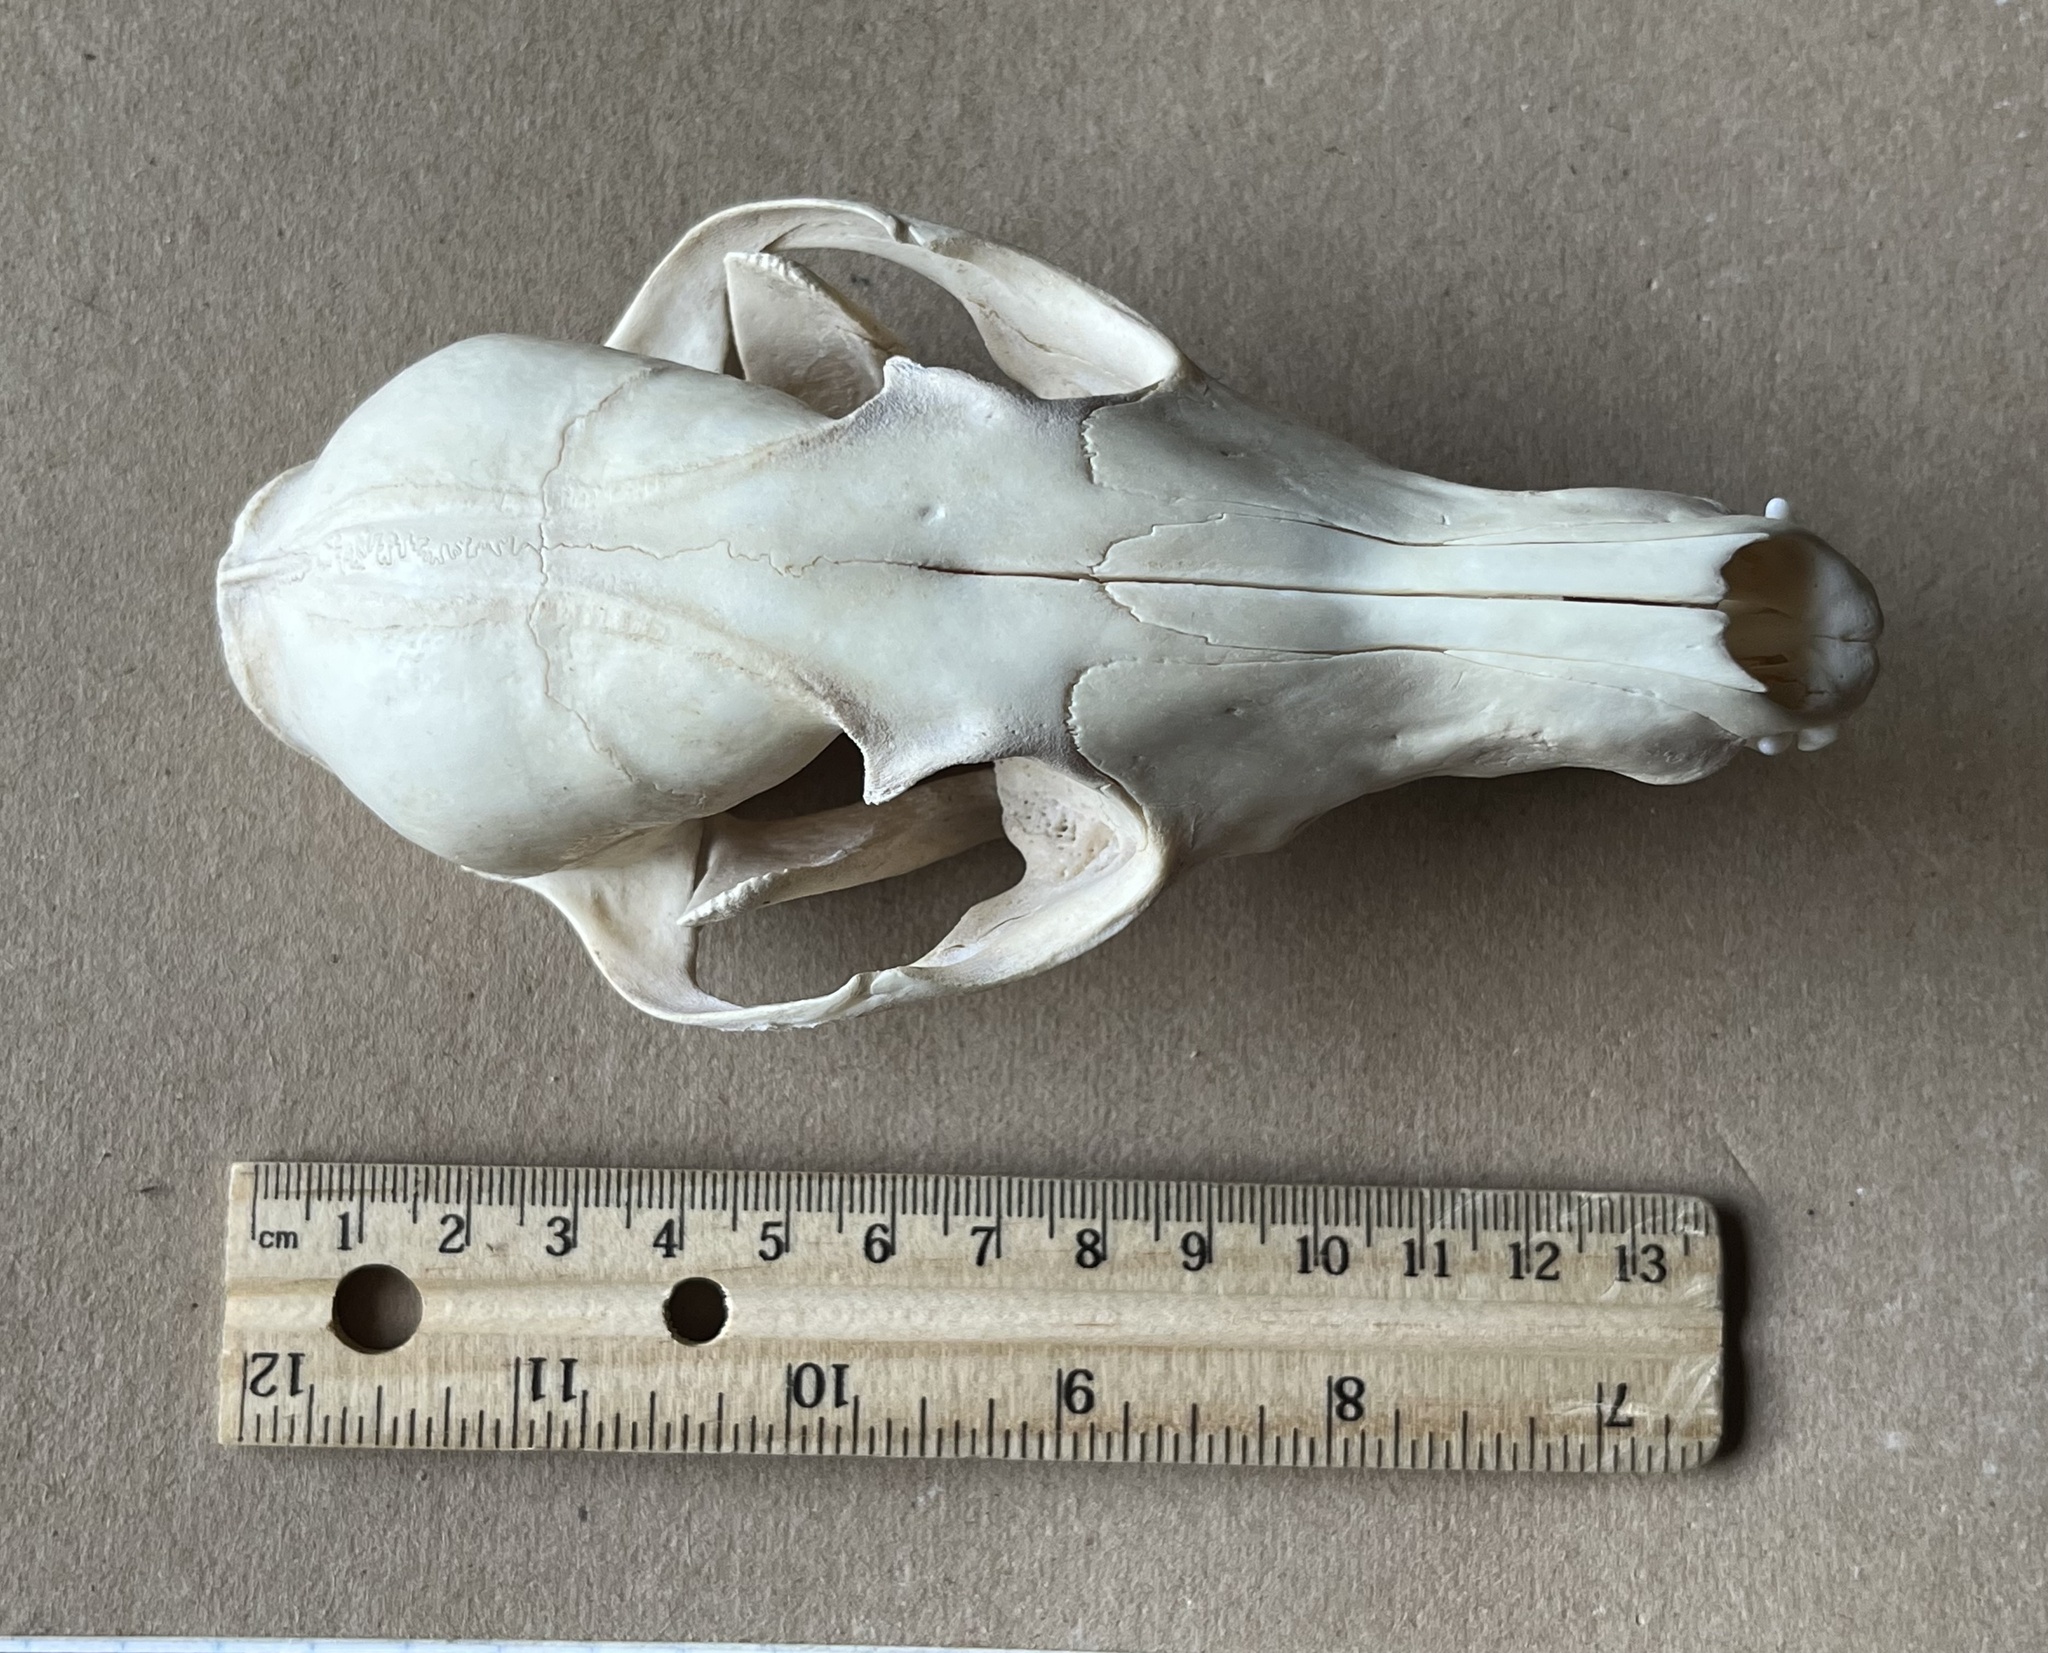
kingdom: Animalia
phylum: Chordata
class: Mammalia
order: Carnivora
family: Canidae
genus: Vulpes
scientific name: Vulpes vulpes
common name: Red fox
